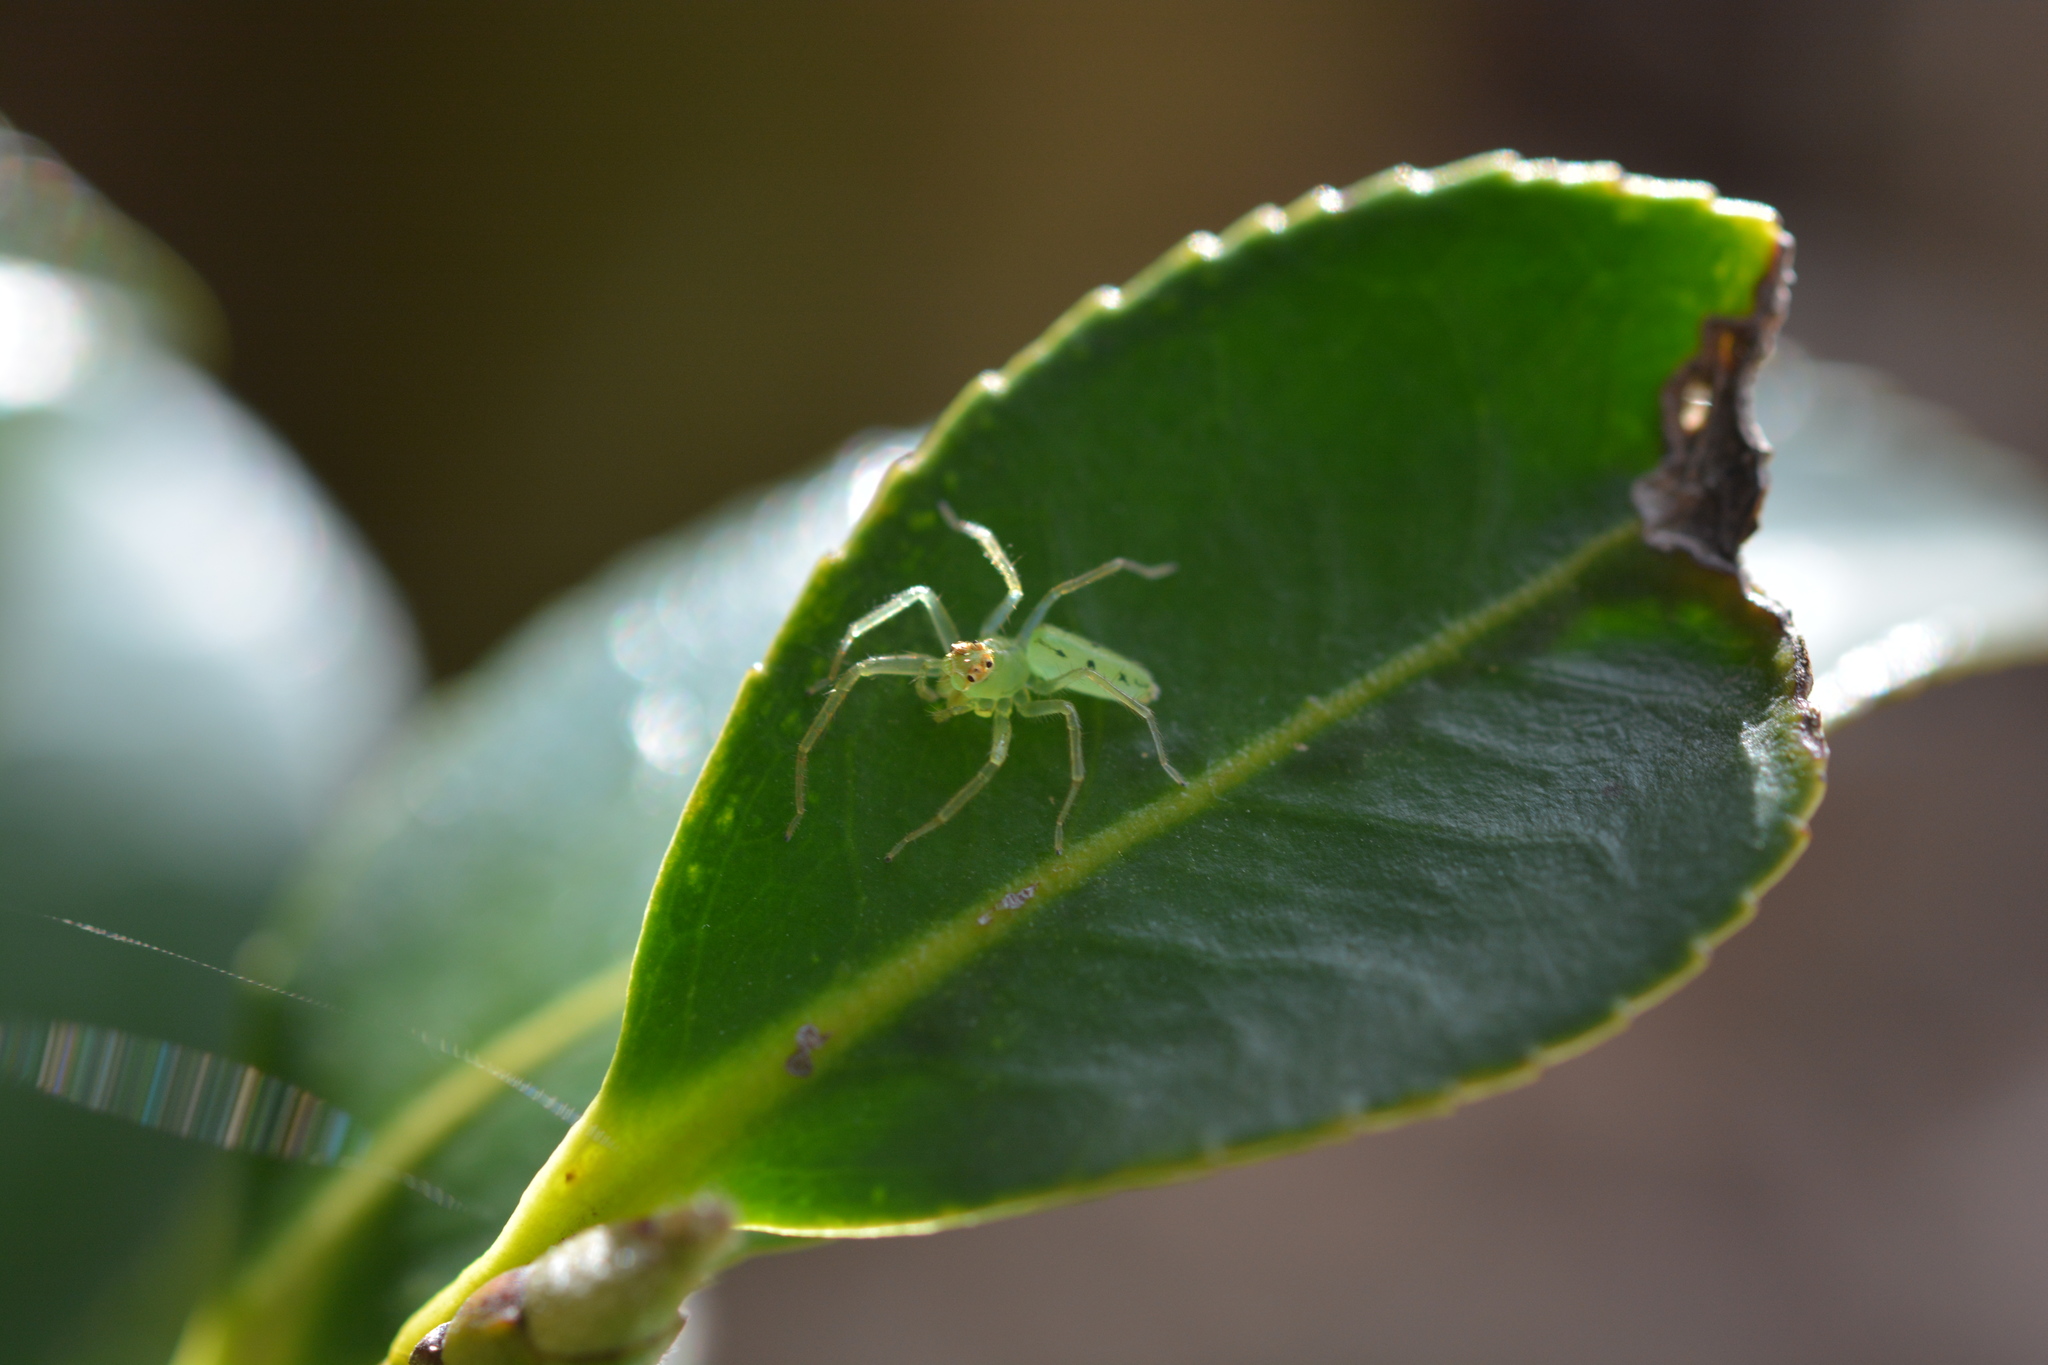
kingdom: Animalia
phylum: Arthropoda
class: Arachnida
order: Araneae
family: Salticidae
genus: Lyssomanes
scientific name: Lyssomanes viridis
